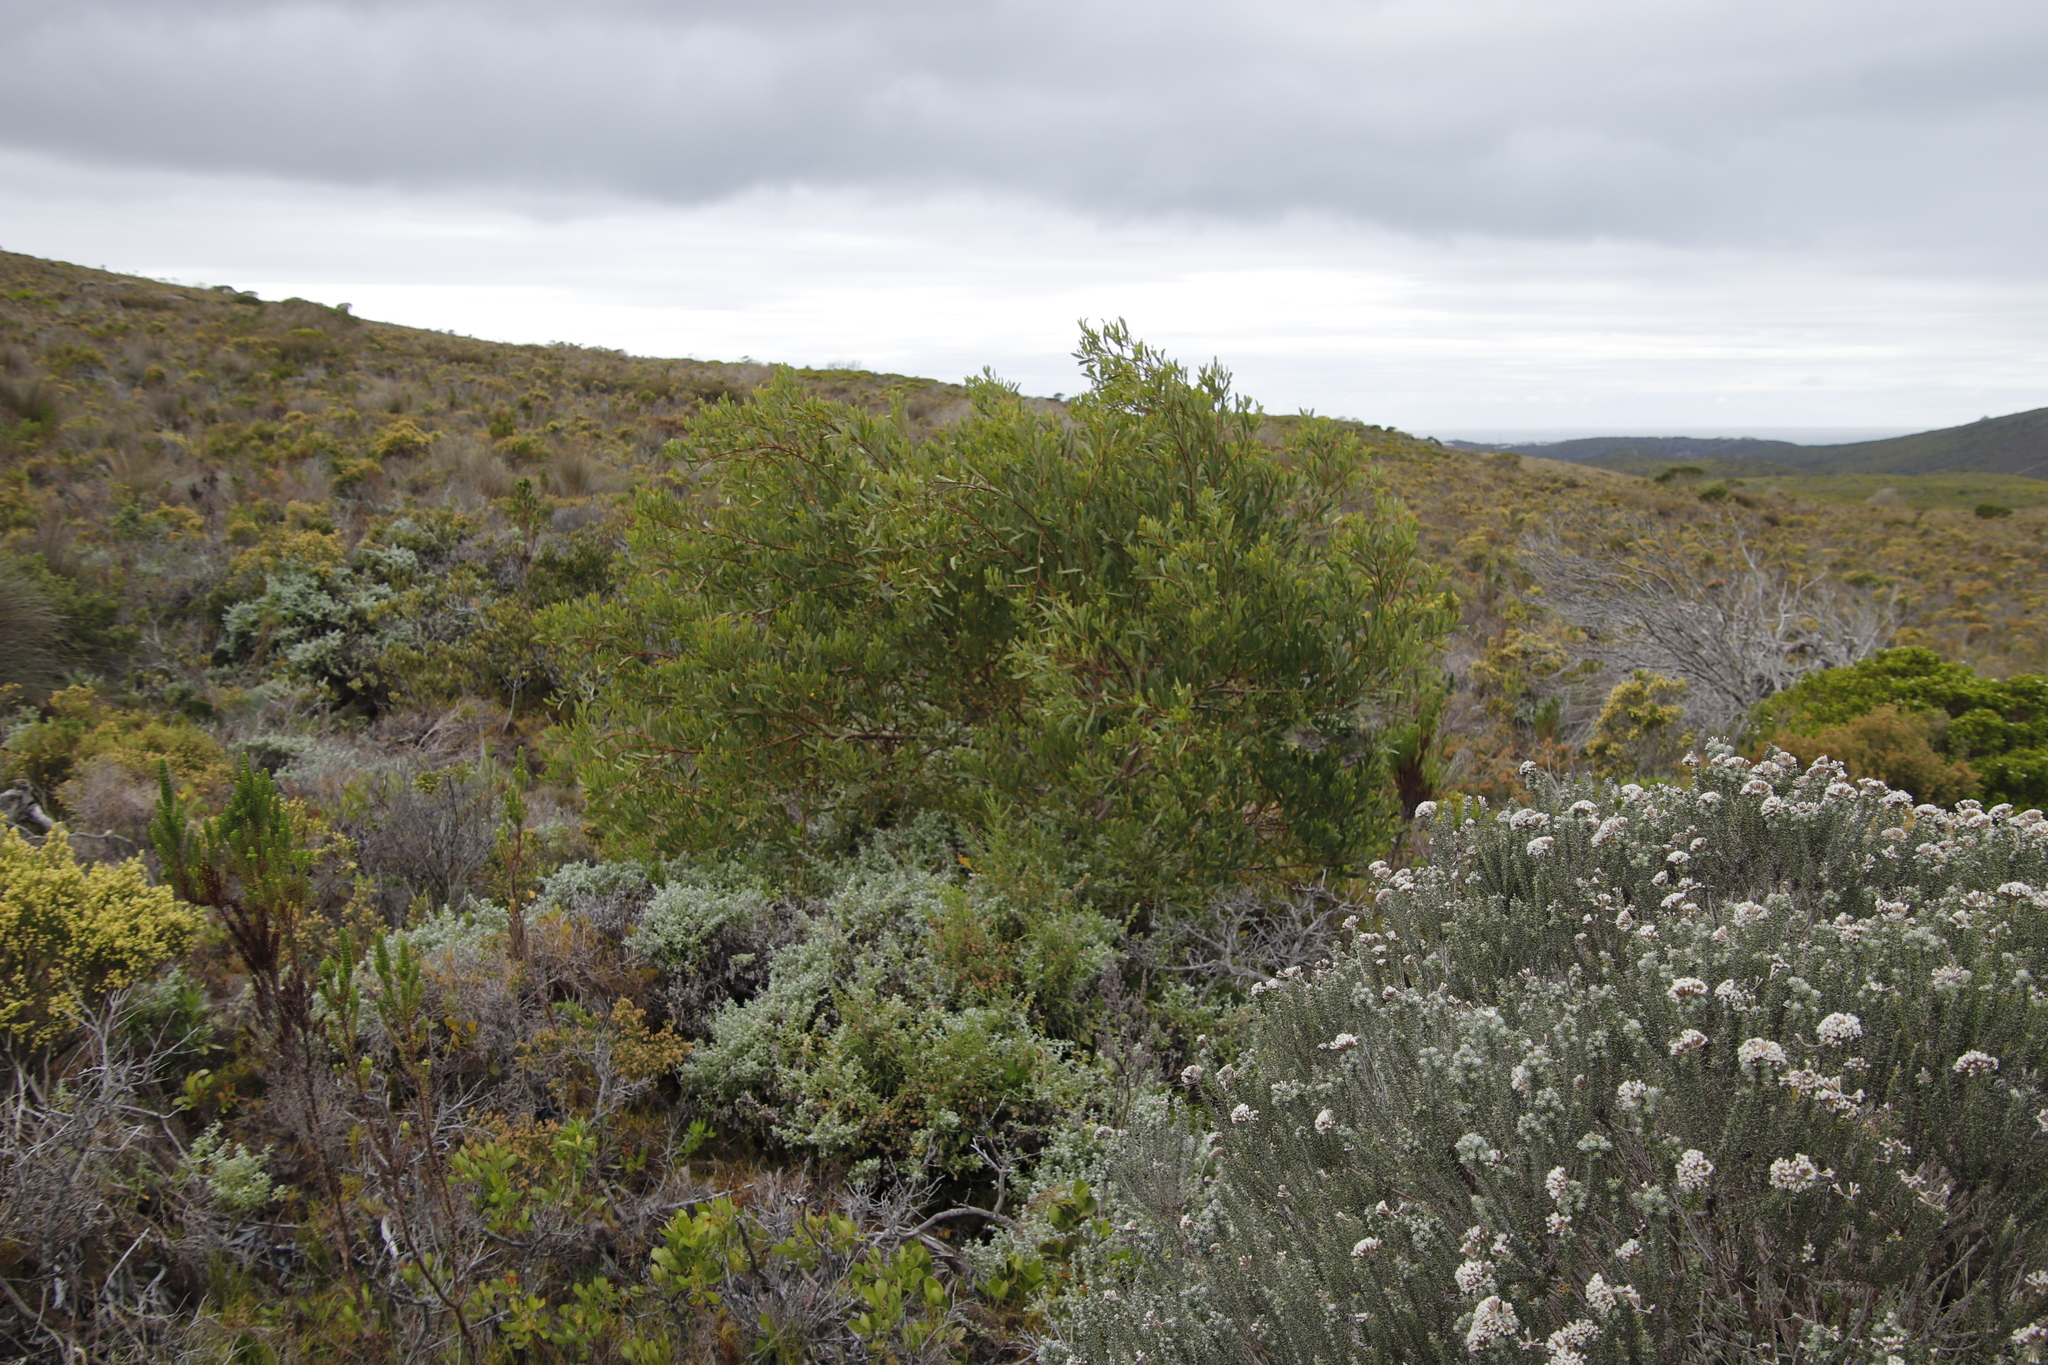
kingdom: Plantae
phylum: Tracheophyta
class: Magnoliopsida
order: Fabales
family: Fabaceae
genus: Acacia
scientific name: Acacia cyclops
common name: Coastal wattle
